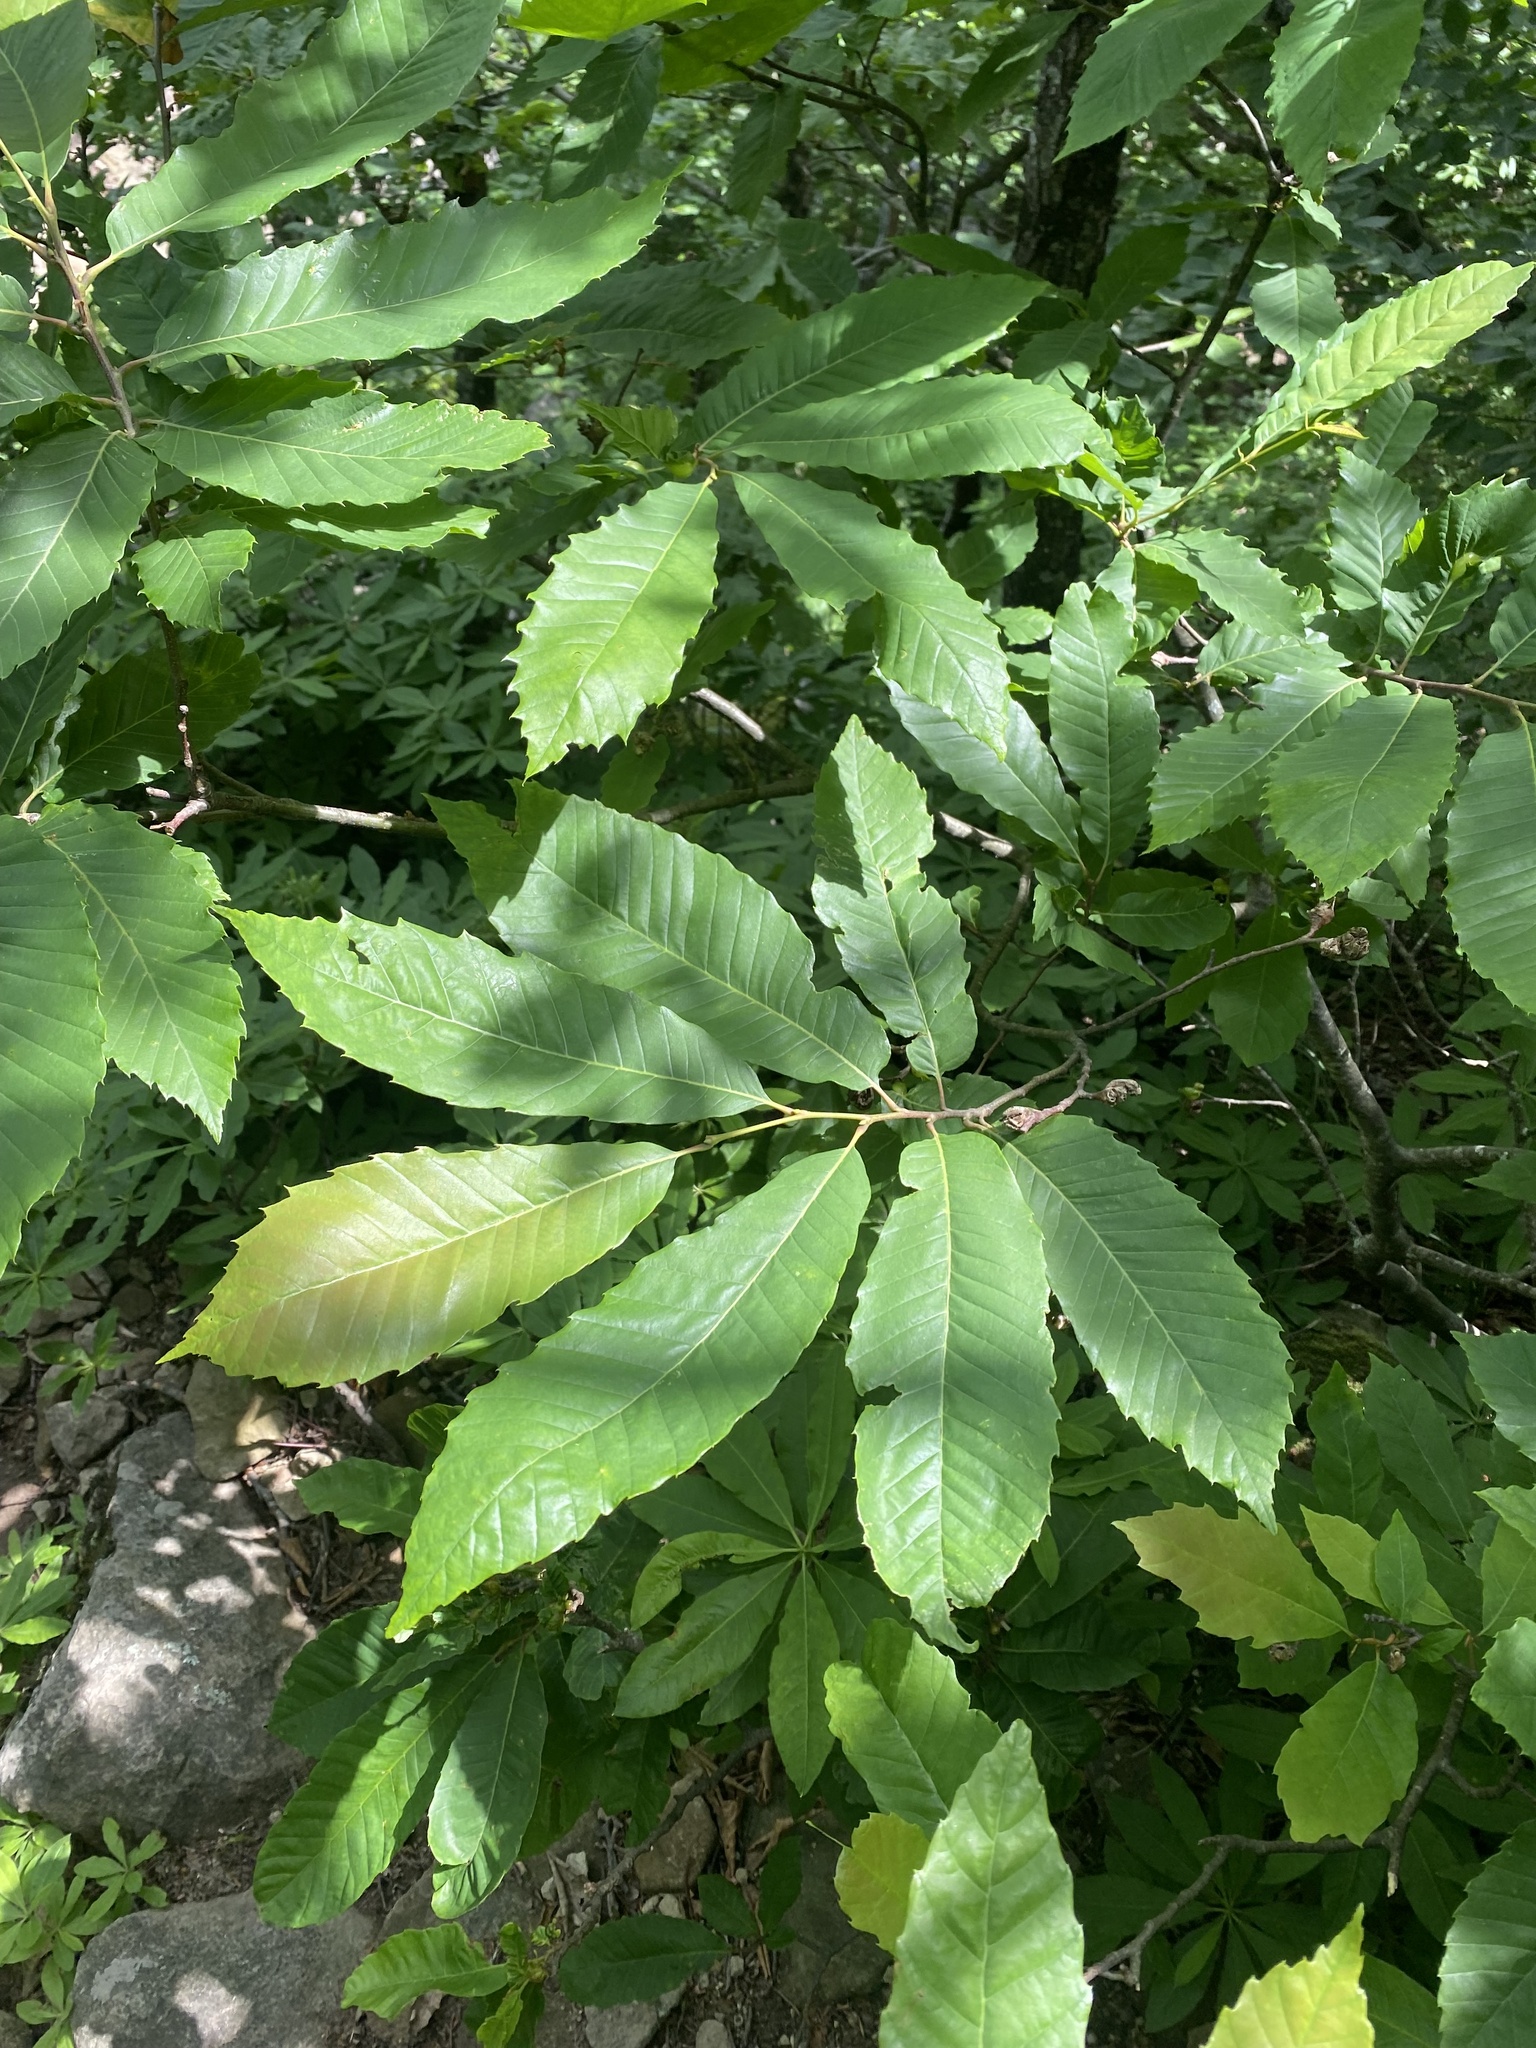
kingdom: Animalia
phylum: Arthropoda
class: Insecta
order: Hymenoptera
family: Cynipidae
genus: Dryocosmus
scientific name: Dryocosmus kuriphilus
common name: Asian chestnut gall wasp
